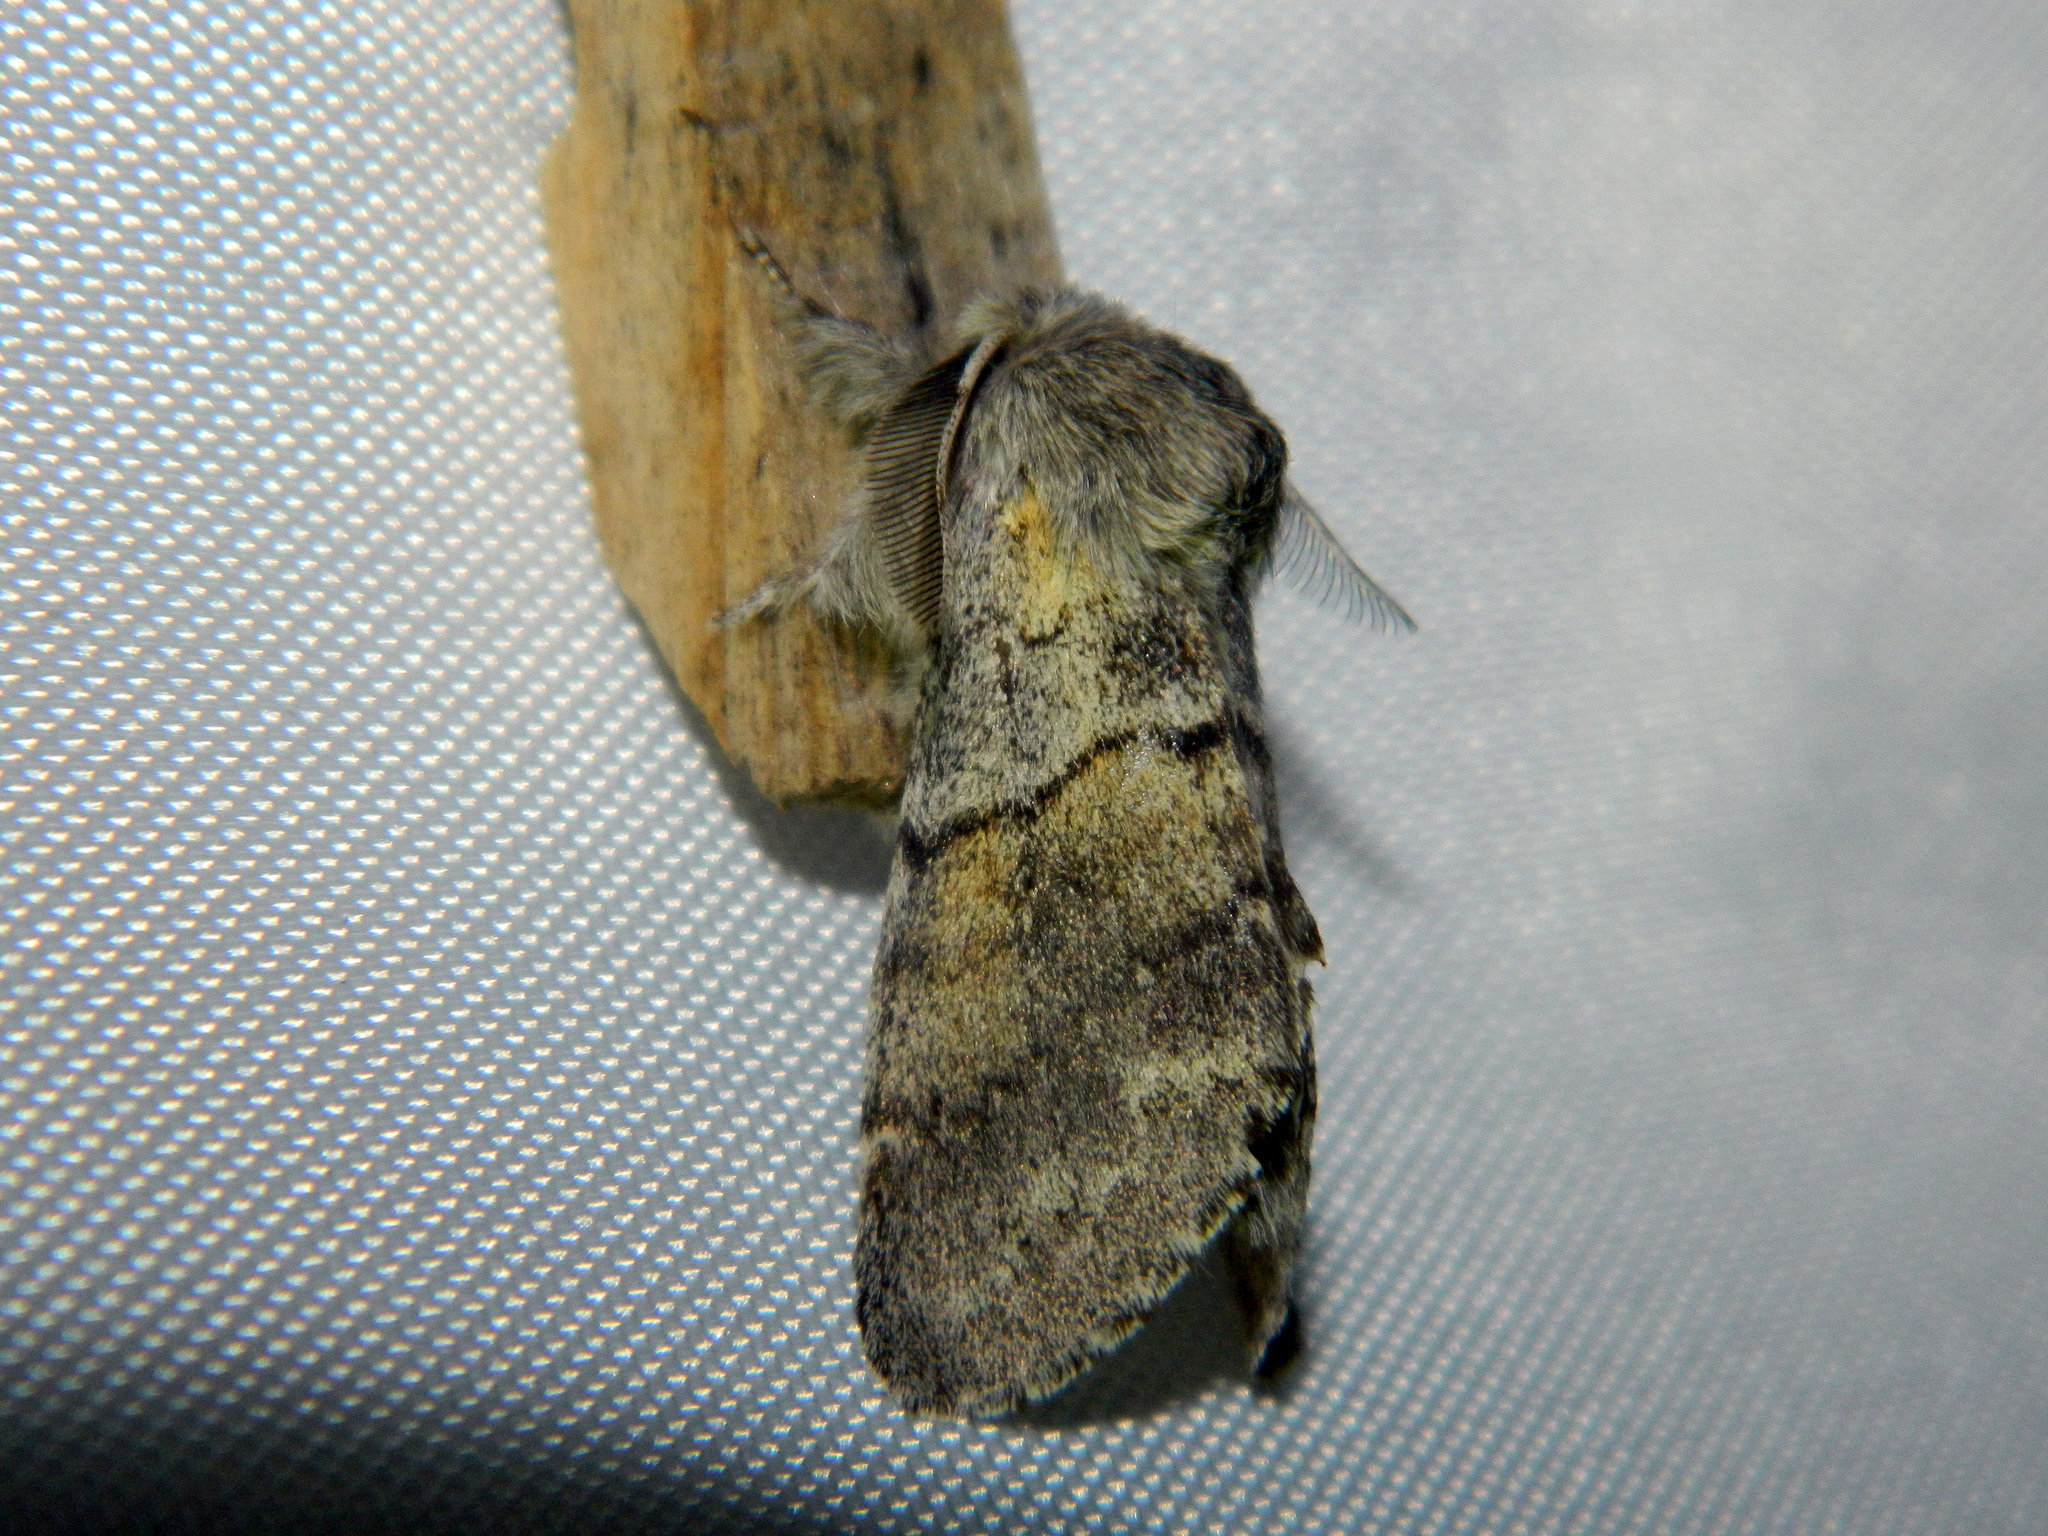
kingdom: Animalia
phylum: Arthropoda
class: Insecta
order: Lepidoptera
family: Notodontidae
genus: Gluphisia
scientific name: Gluphisia lintneri
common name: Lintner's gluphisia moth
